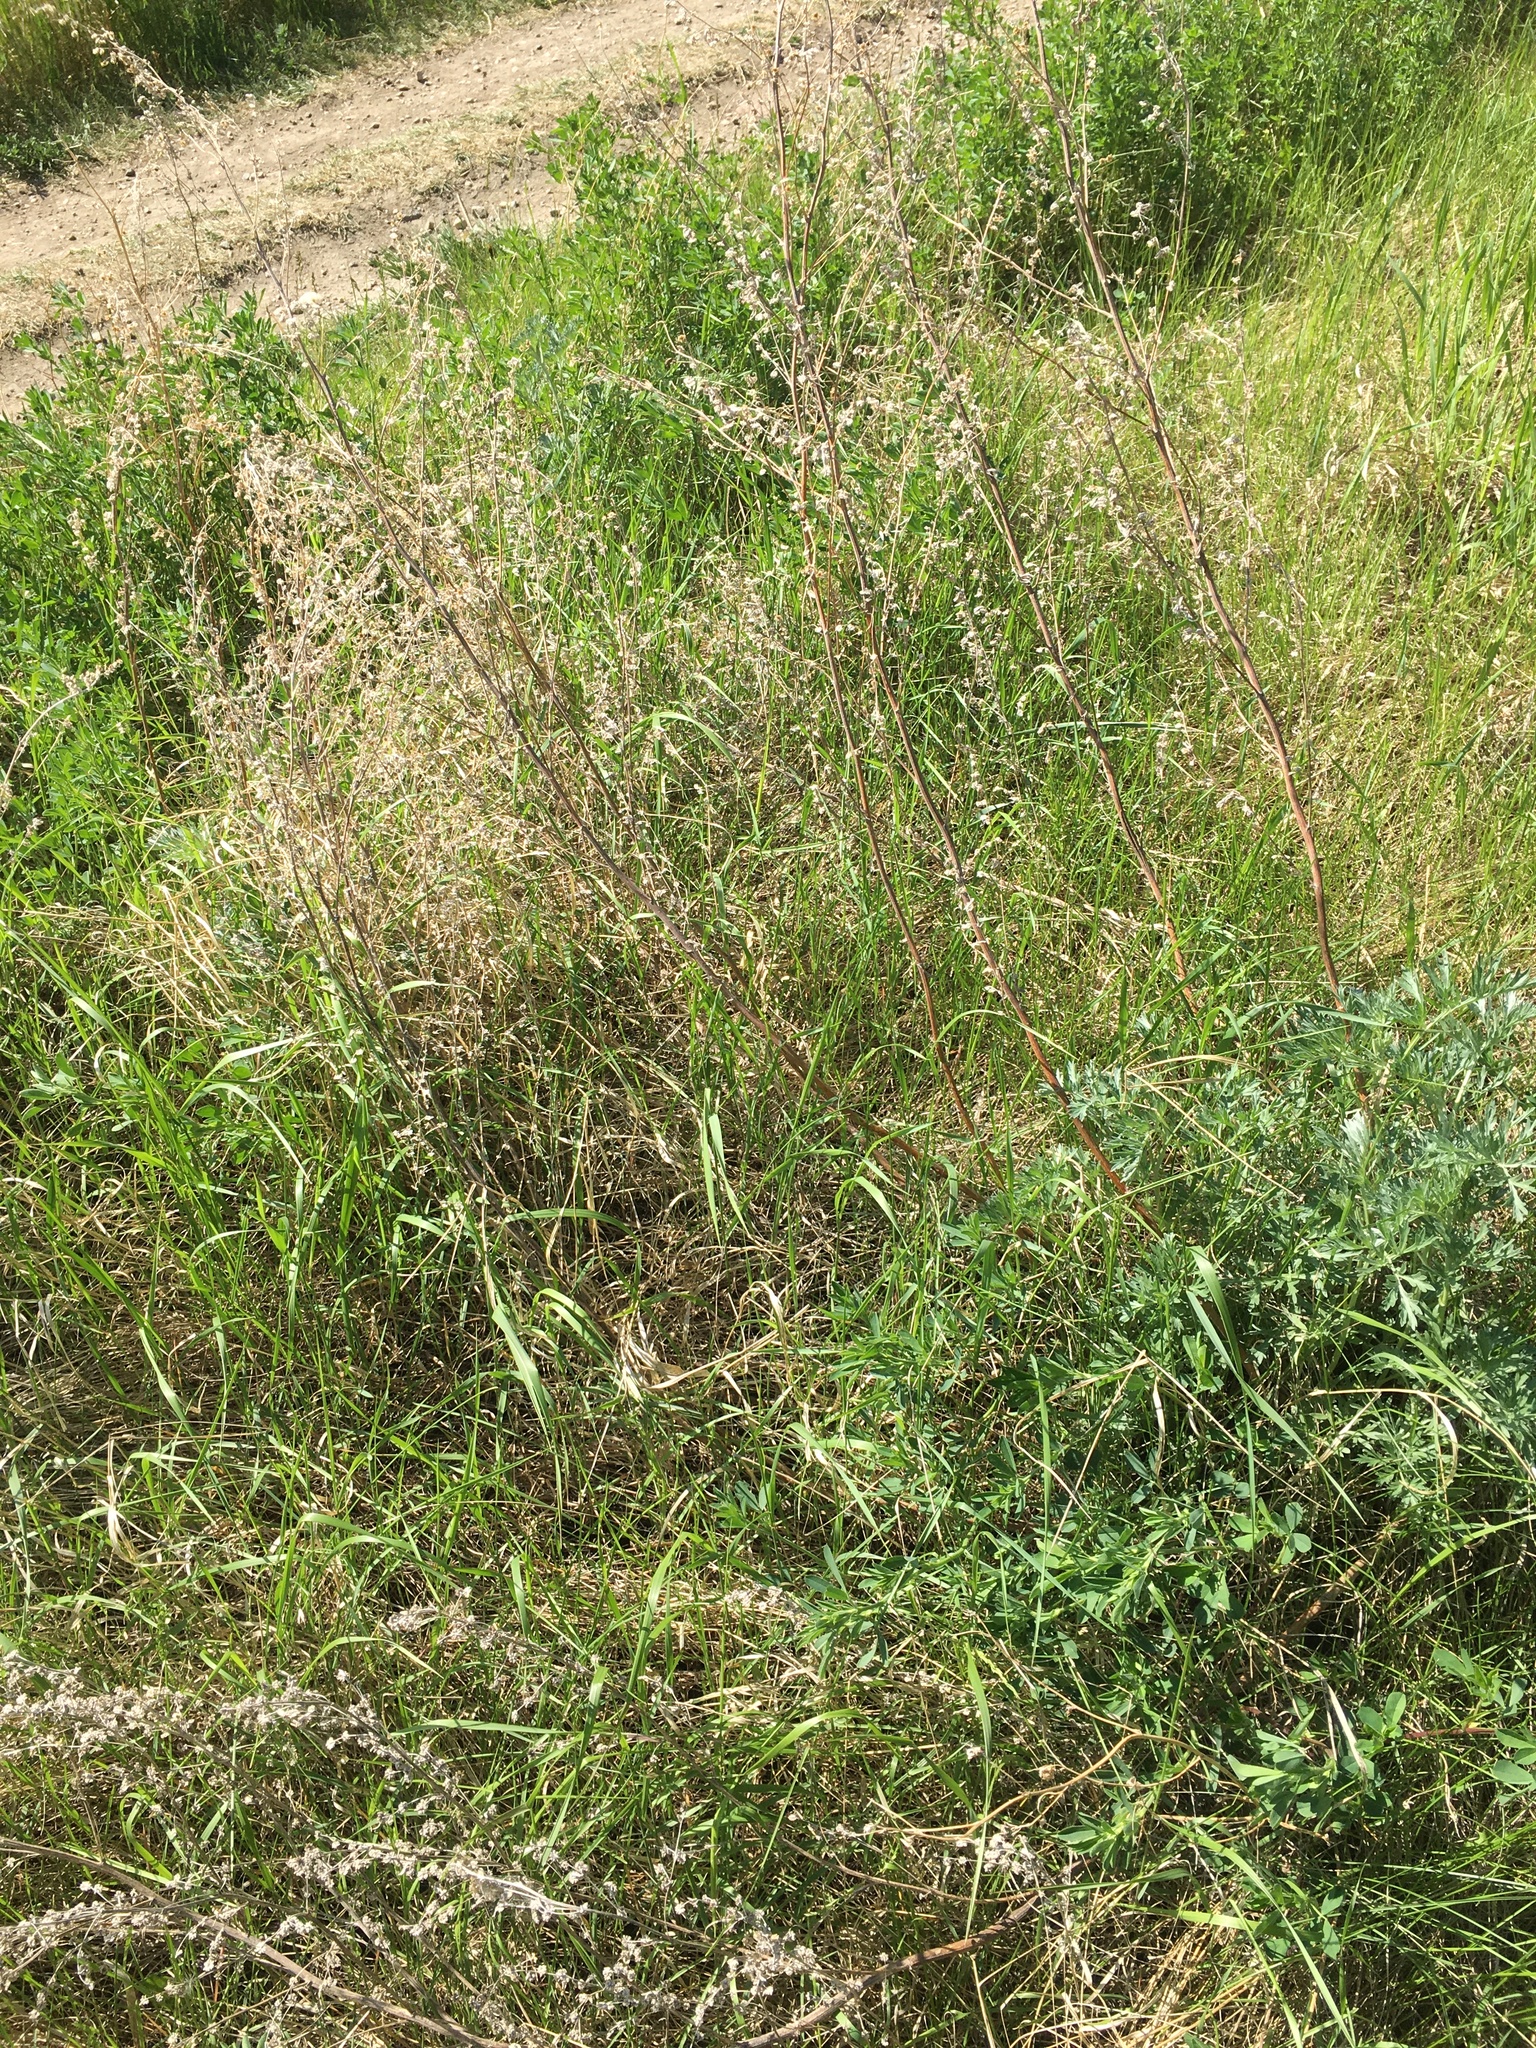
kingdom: Plantae
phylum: Tracheophyta
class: Magnoliopsida
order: Asterales
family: Asteraceae
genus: Artemisia
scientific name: Artemisia absinthium
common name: Wormwood
